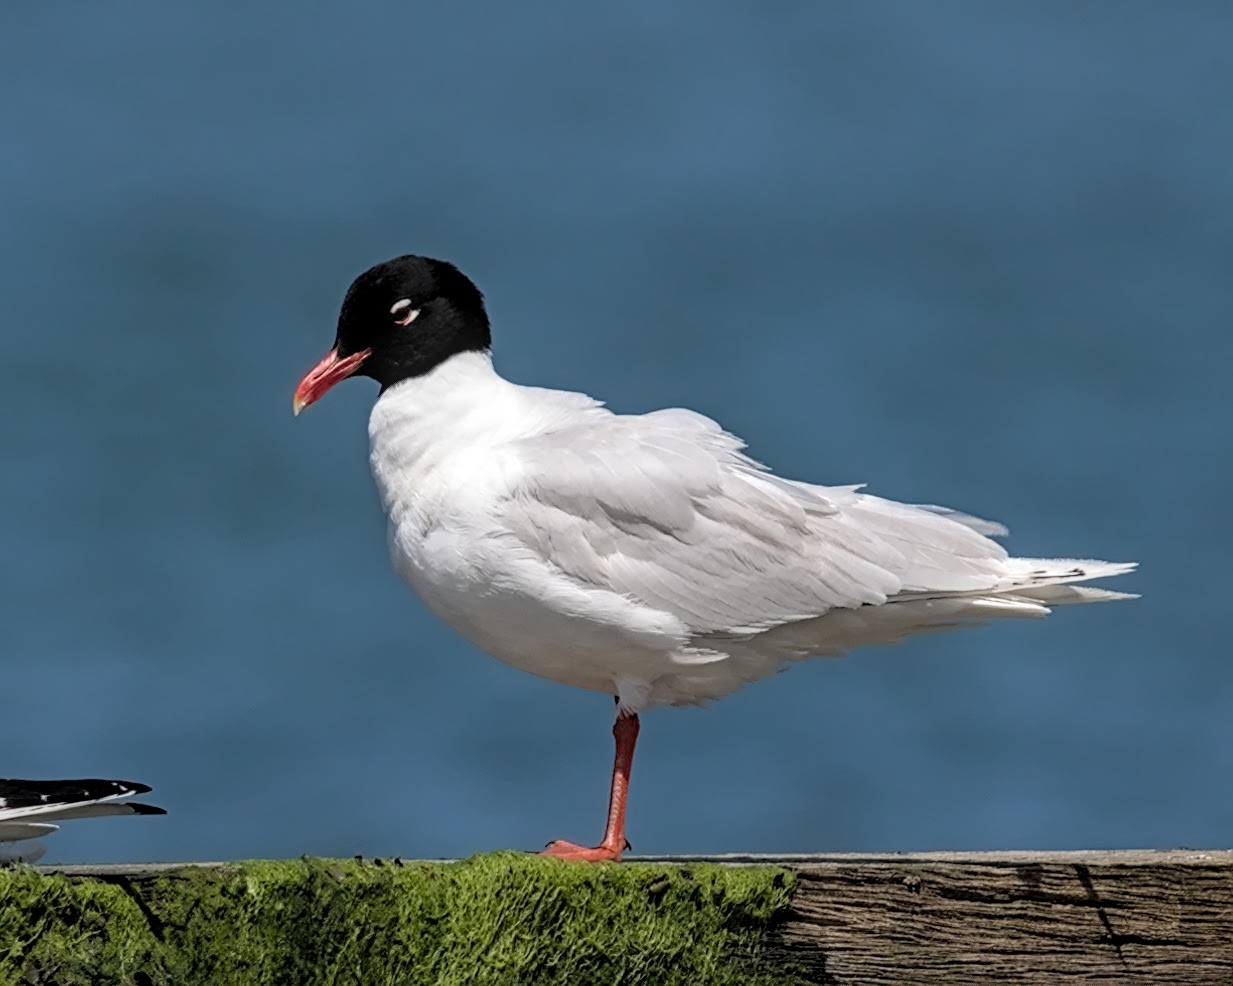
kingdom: Animalia
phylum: Chordata
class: Aves
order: Charadriiformes
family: Laridae
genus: Ichthyaetus
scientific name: Ichthyaetus melanocephalus
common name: Mediterranean gull
